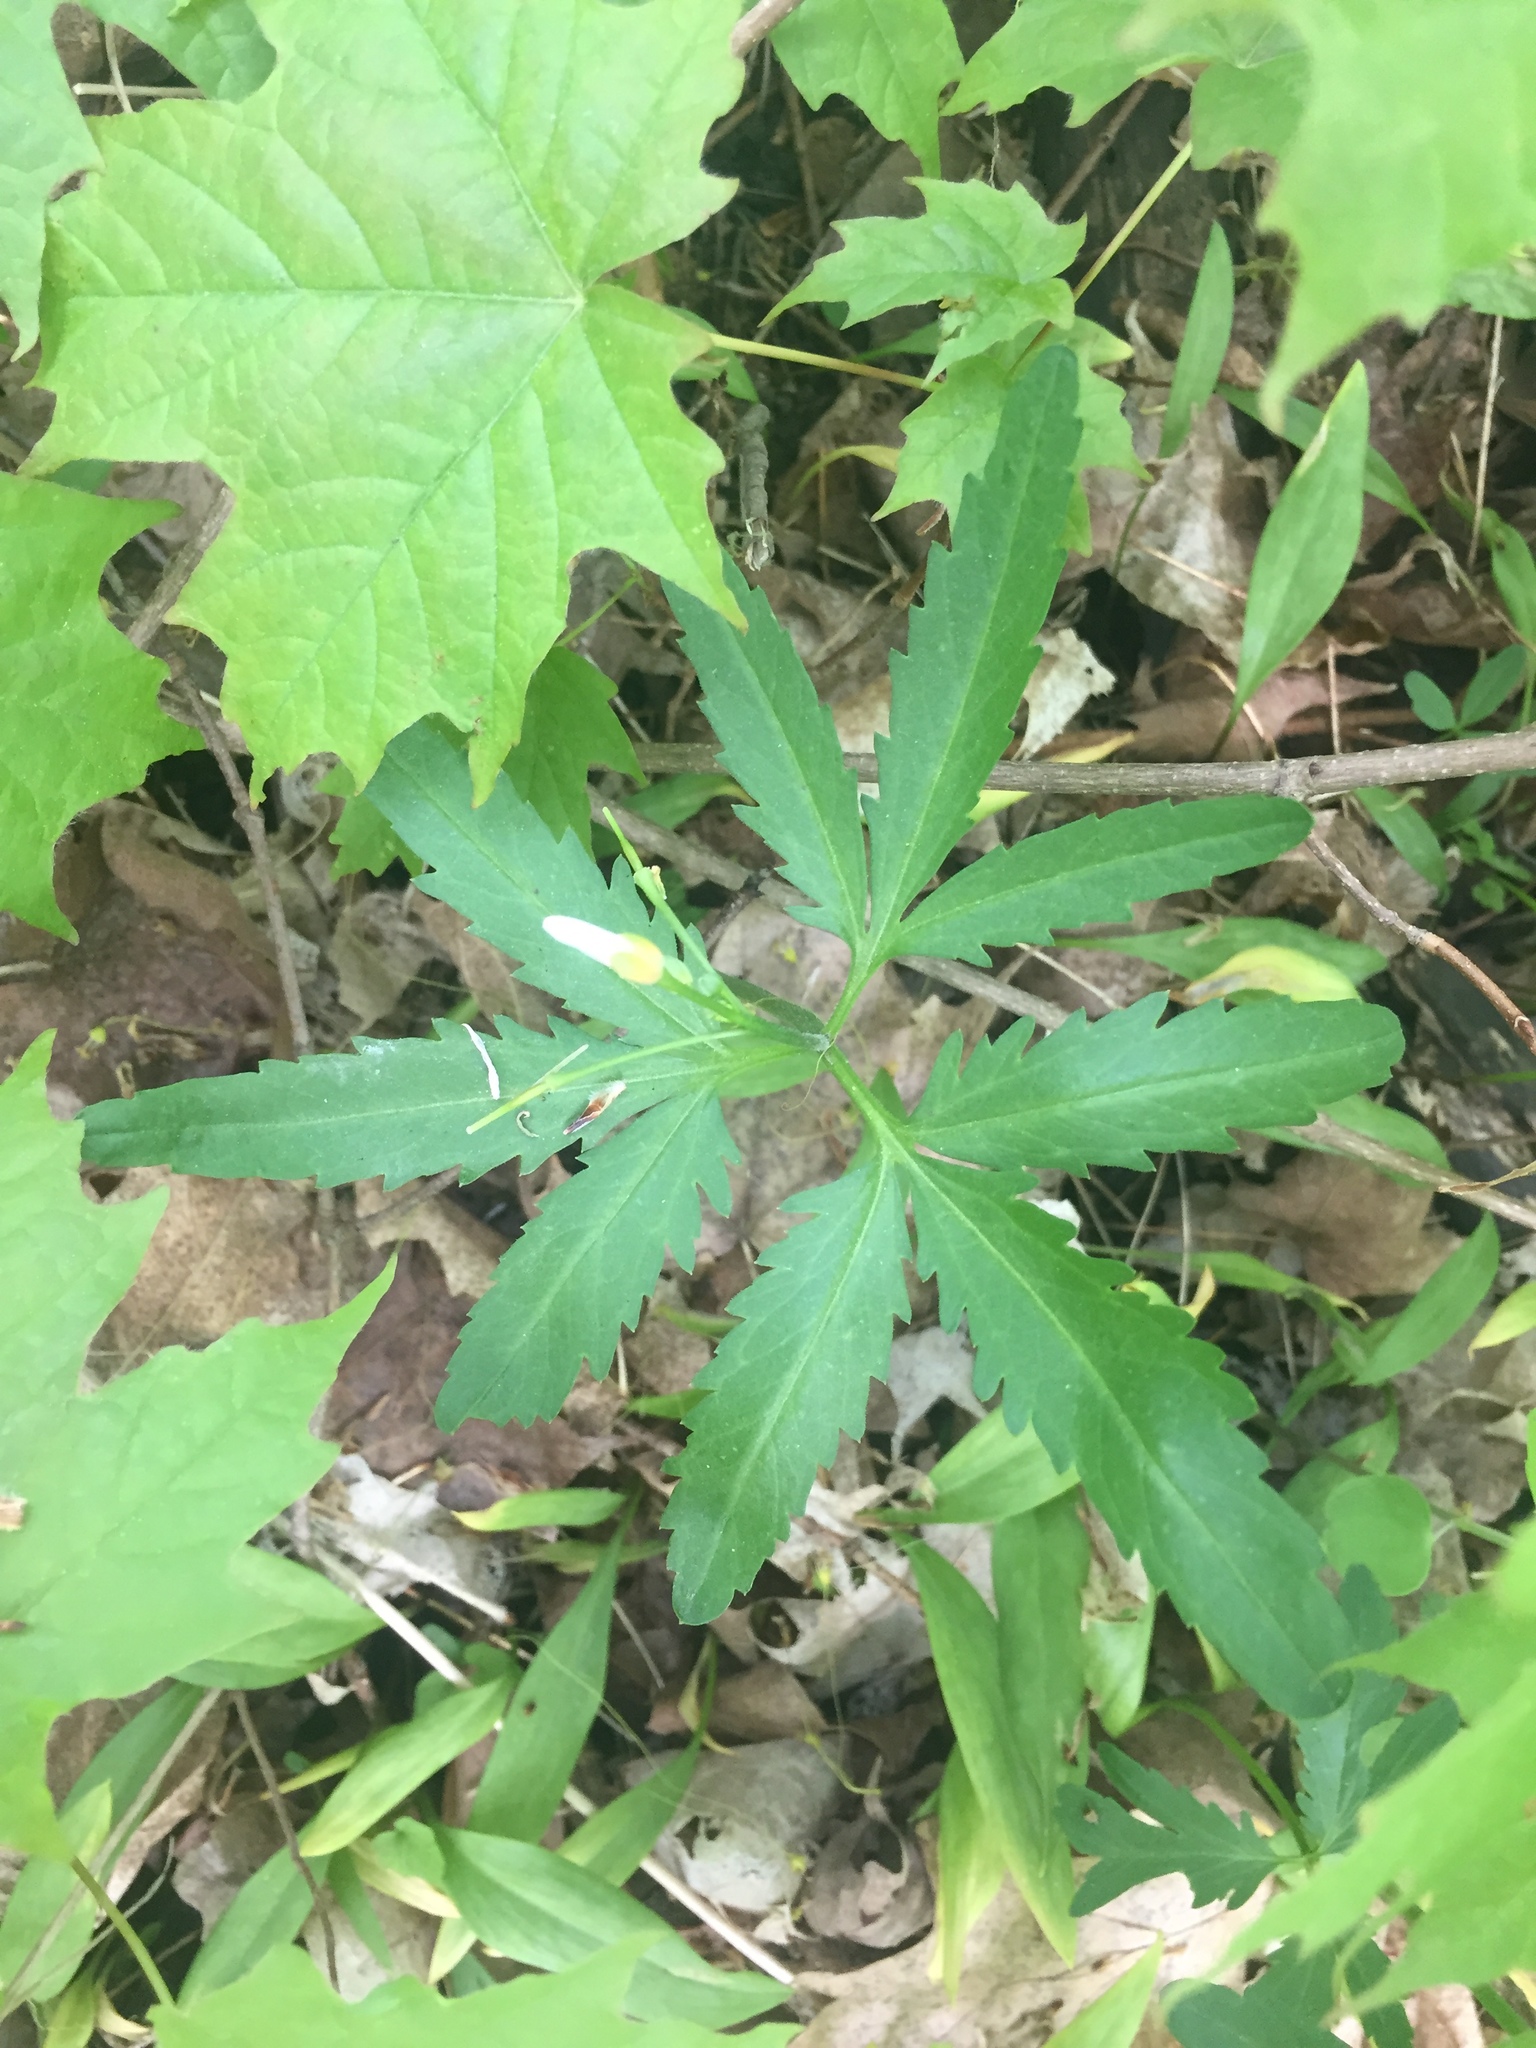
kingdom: Plantae
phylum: Tracheophyta
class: Magnoliopsida
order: Brassicales
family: Brassicaceae
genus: Cardamine
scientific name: Cardamine concatenata
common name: Cut-leaf toothcup
